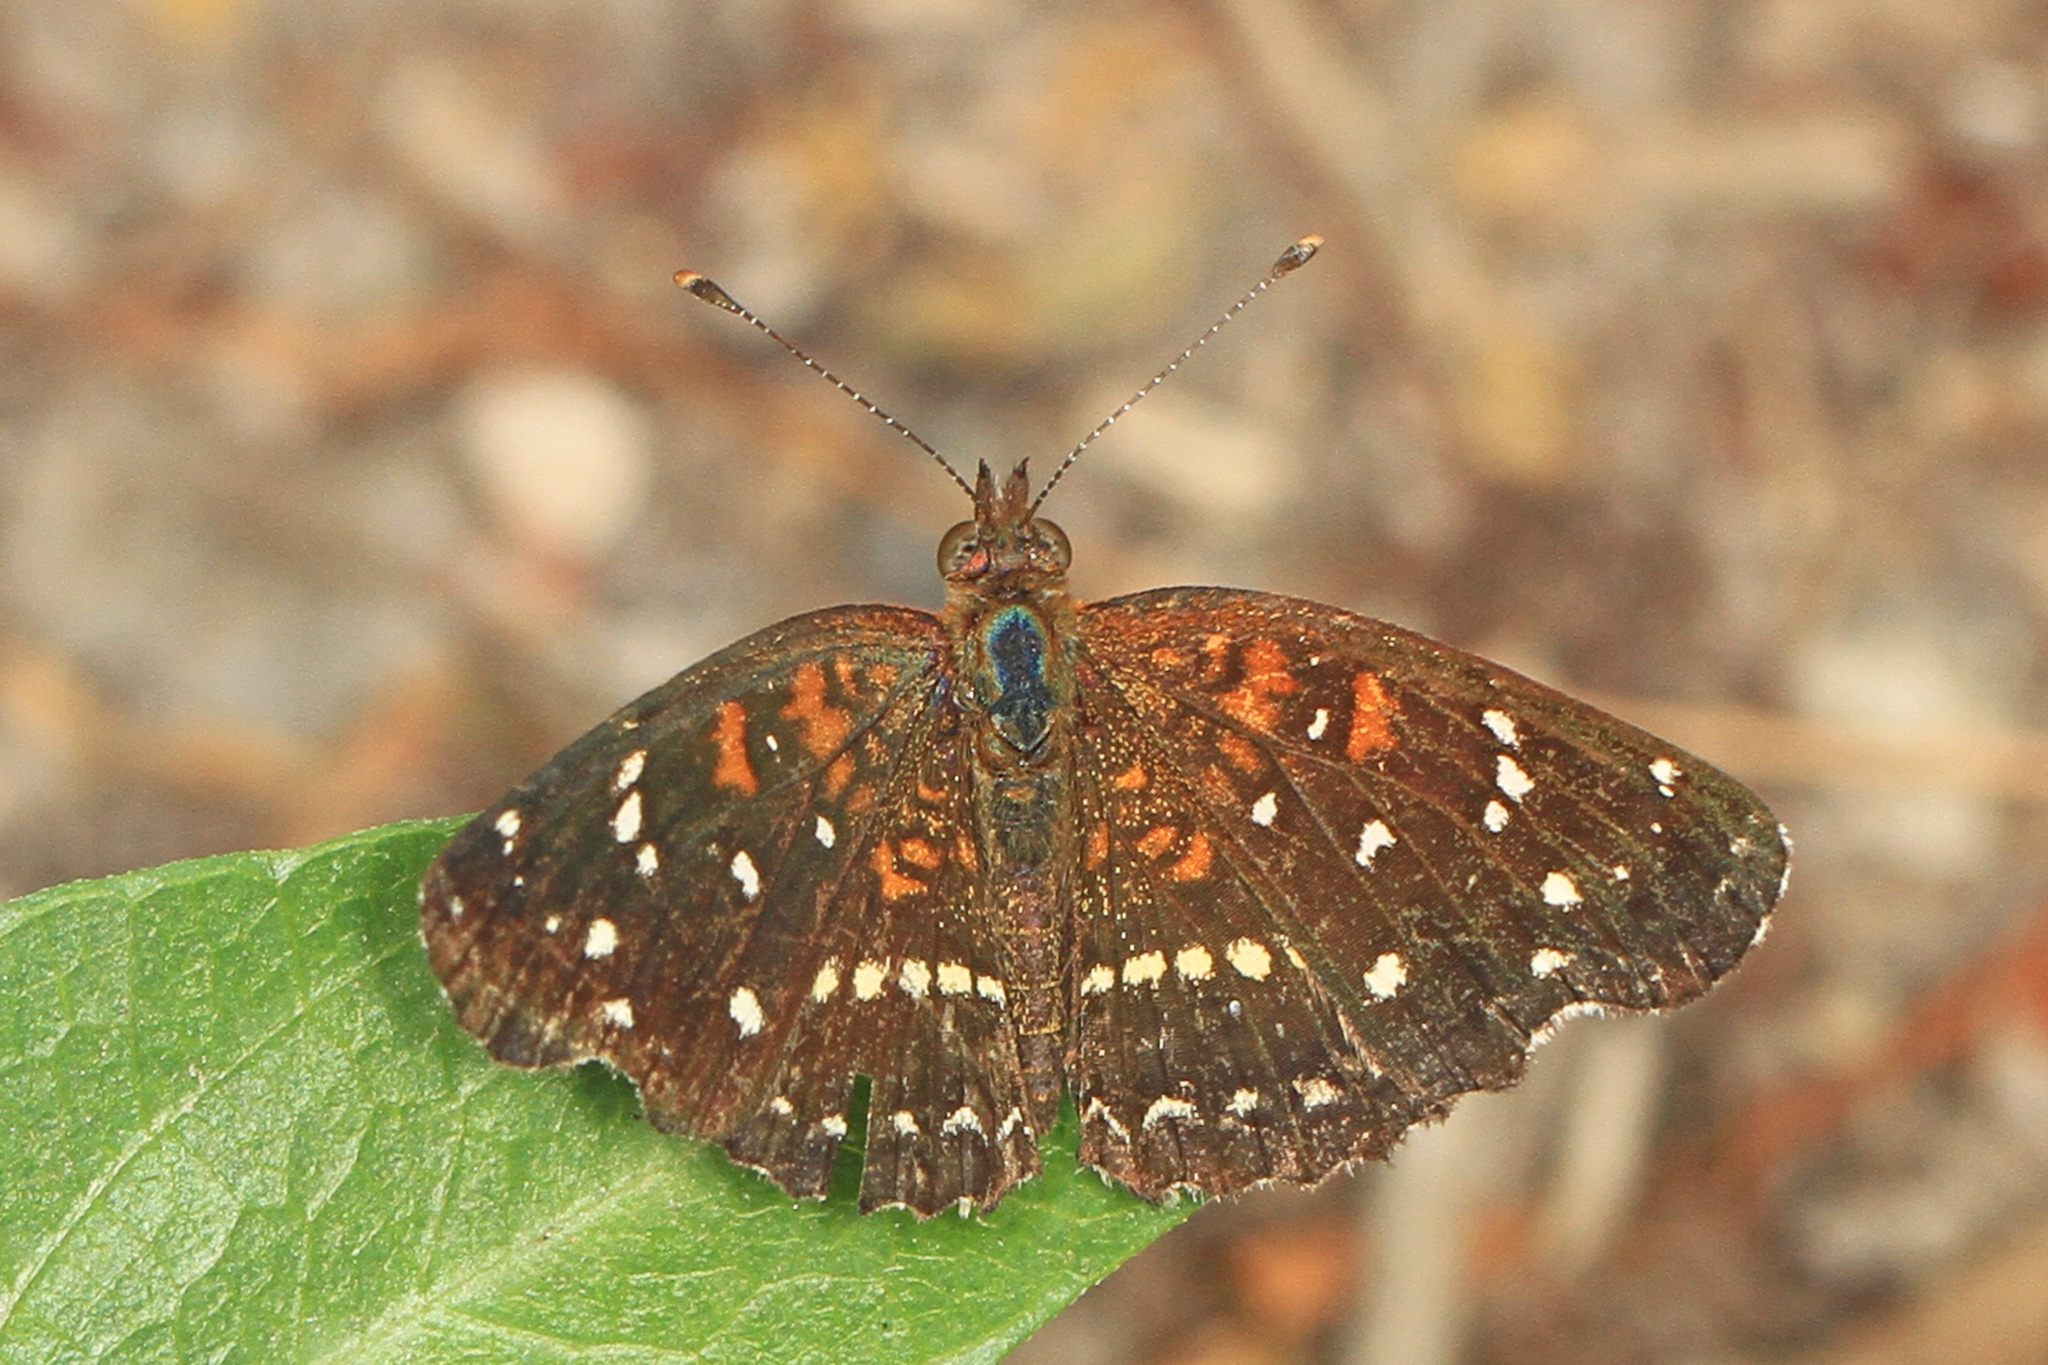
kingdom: Animalia
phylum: Arthropoda
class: Insecta
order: Lepidoptera
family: Nymphalidae
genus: Anthanassa
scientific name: Anthanassa texana
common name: Texan crescent
